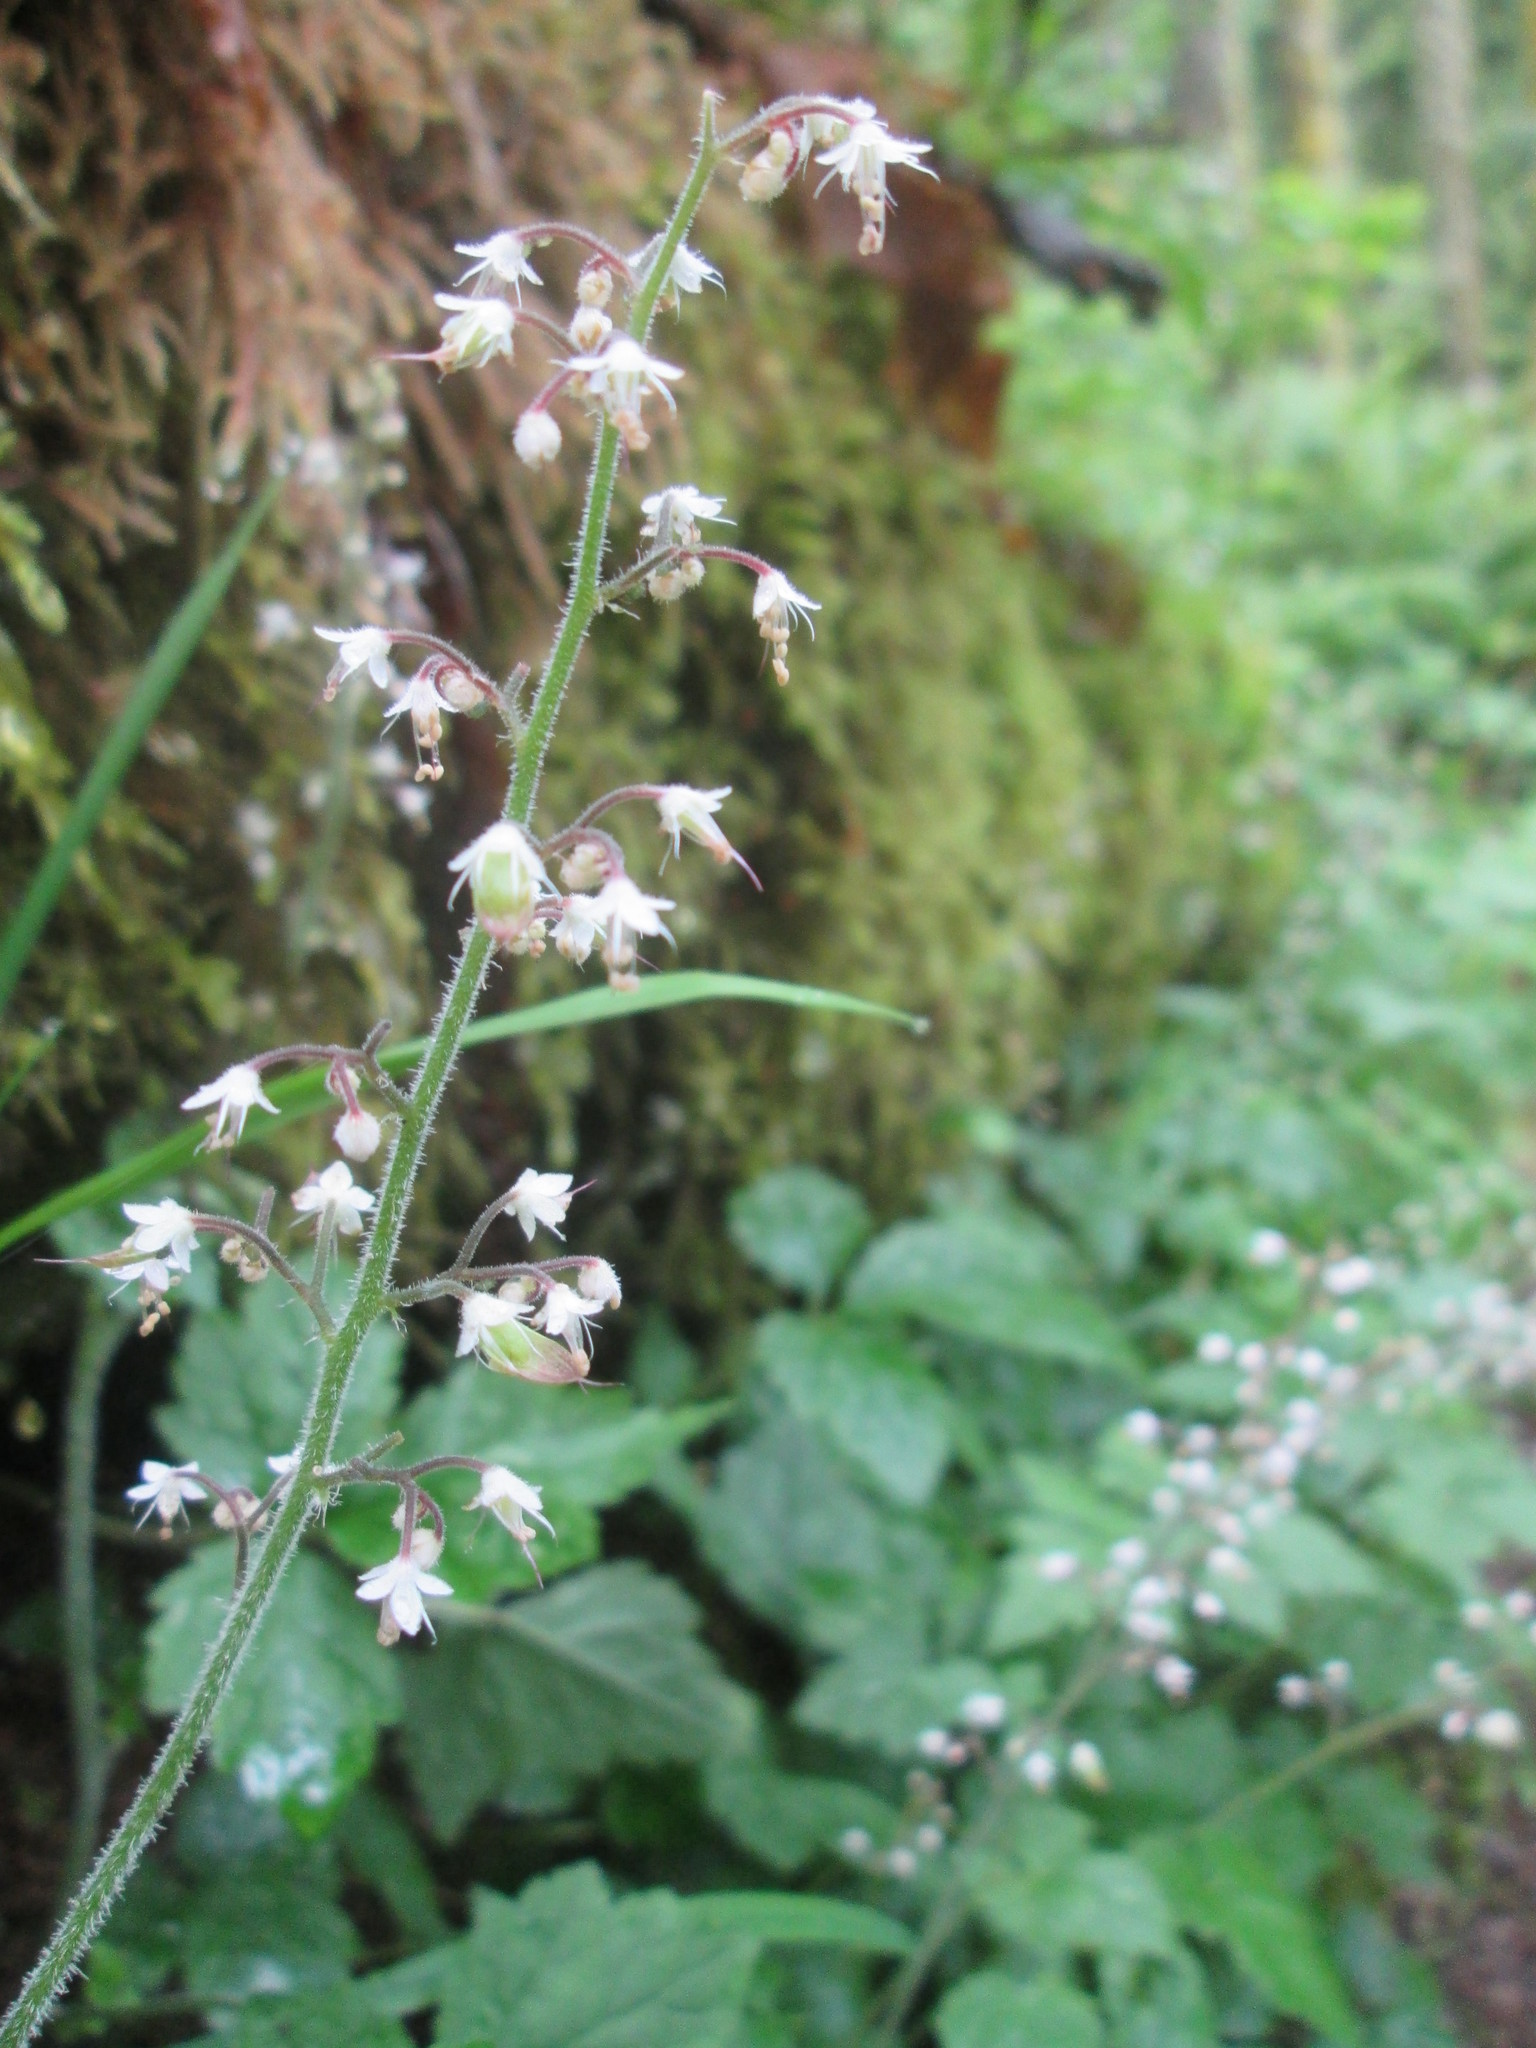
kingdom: Plantae
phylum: Tracheophyta
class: Magnoliopsida
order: Saxifragales
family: Saxifragaceae
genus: Tiarella
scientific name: Tiarella trifoliata
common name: Sugar-scoop
